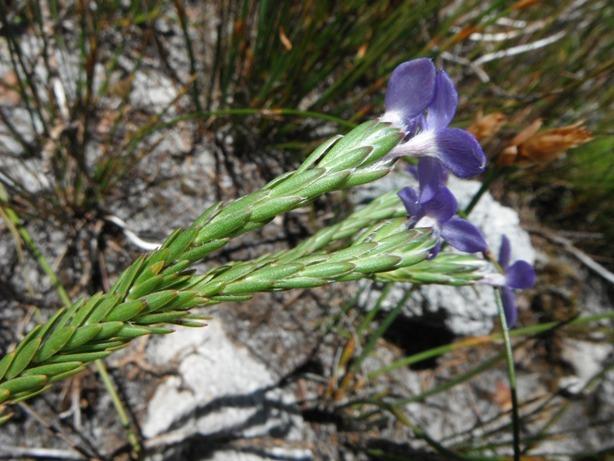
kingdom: Plantae
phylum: Tracheophyta
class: Magnoliopsida
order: Malvales
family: Thymelaeaceae
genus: Gnidia
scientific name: Gnidia penicillata
